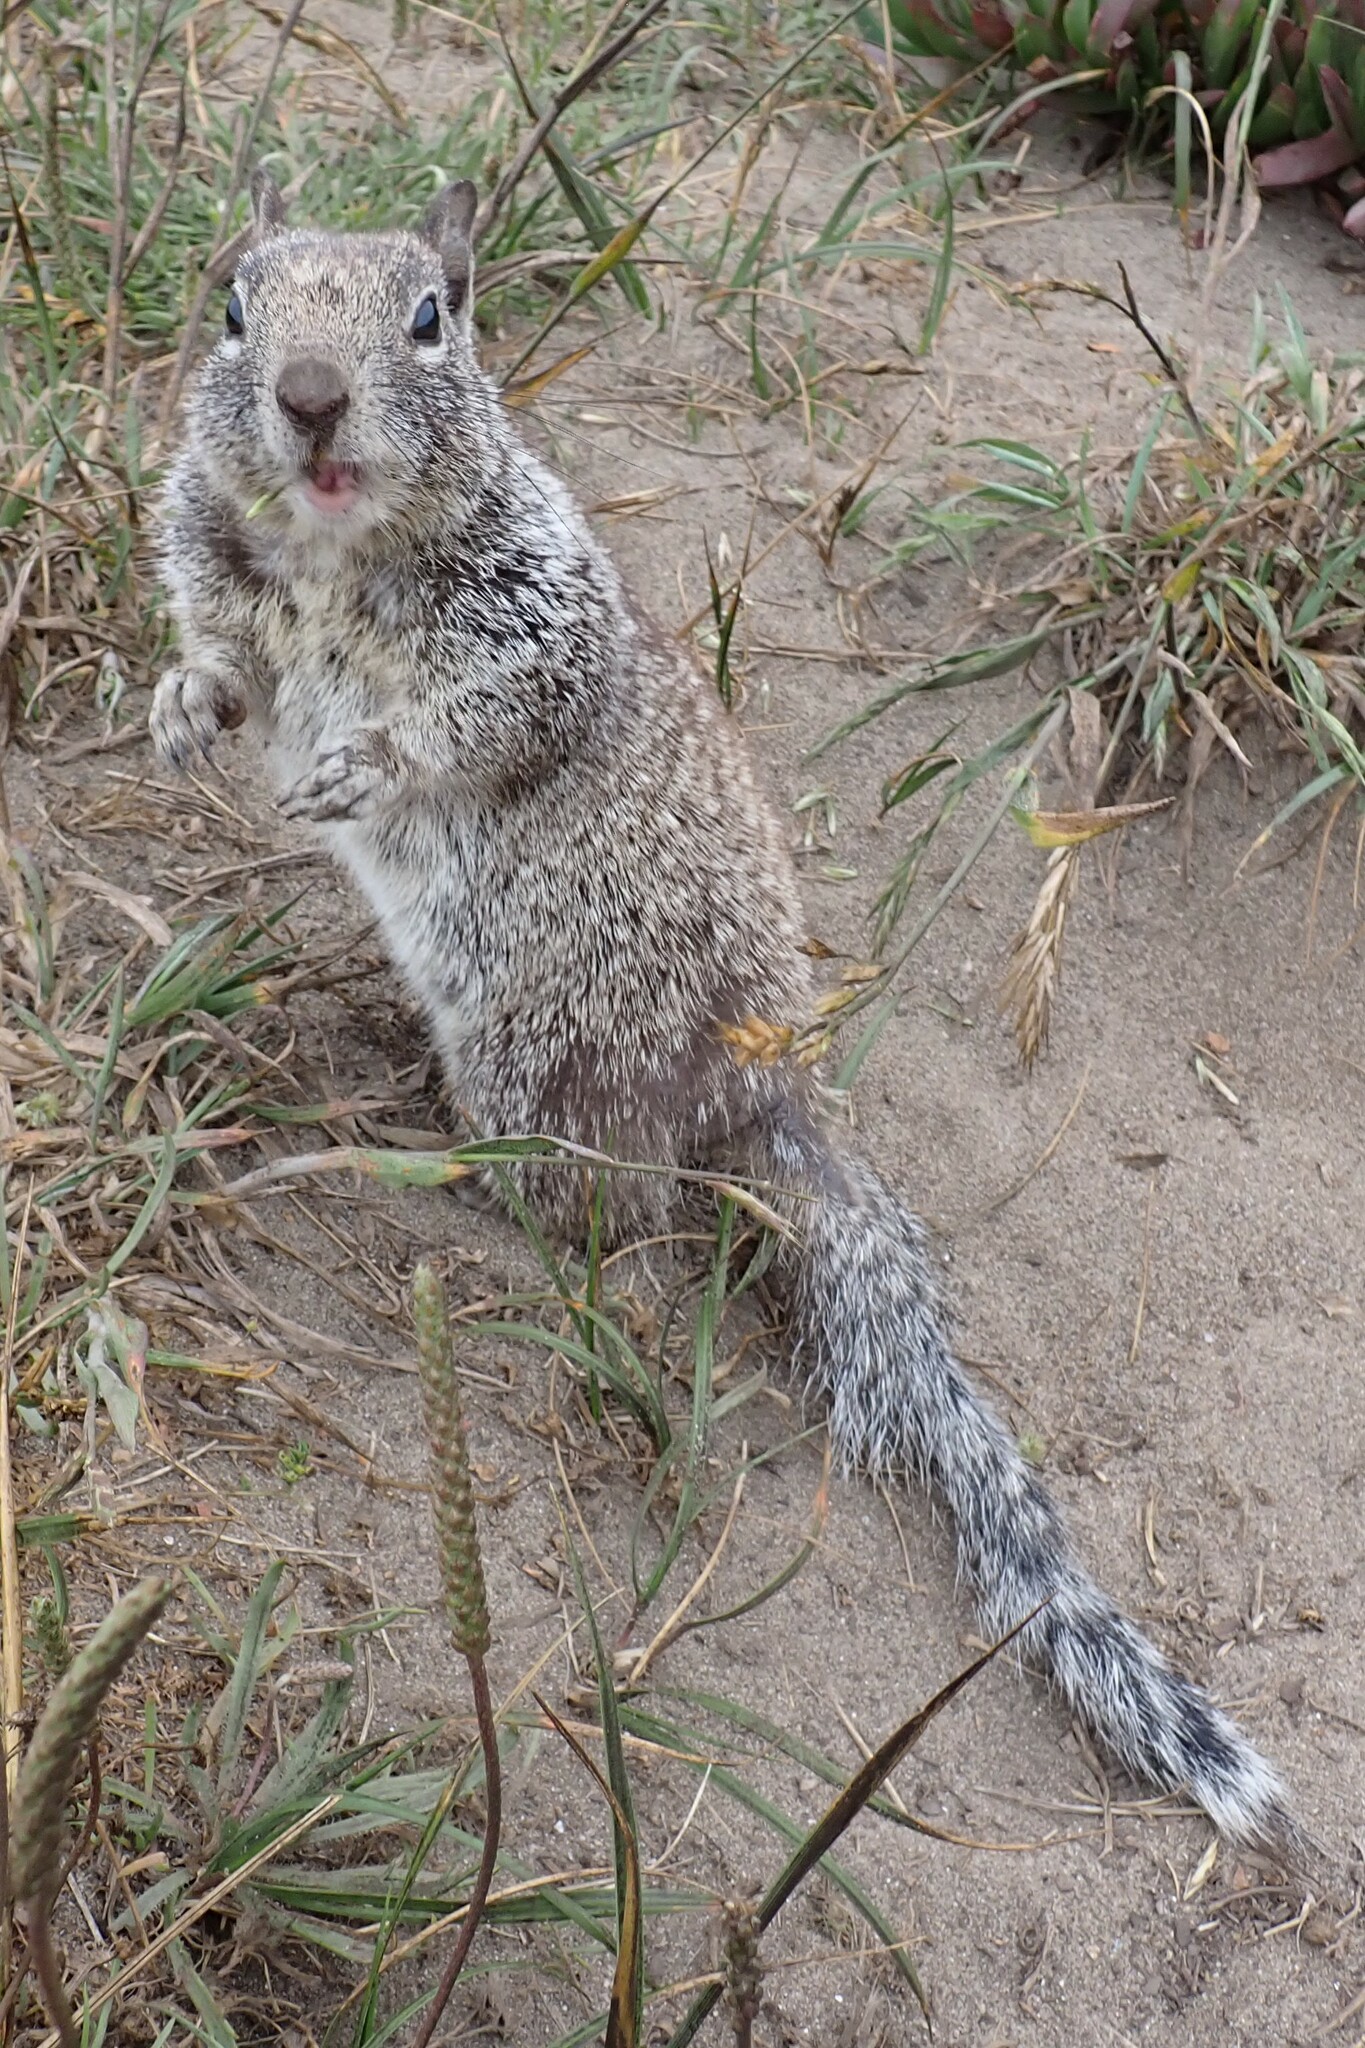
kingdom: Animalia
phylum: Chordata
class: Mammalia
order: Rodentia
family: Sciuridae
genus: Otospermophilus
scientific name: Otospermophilus beecheyi
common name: California ground squirrel
